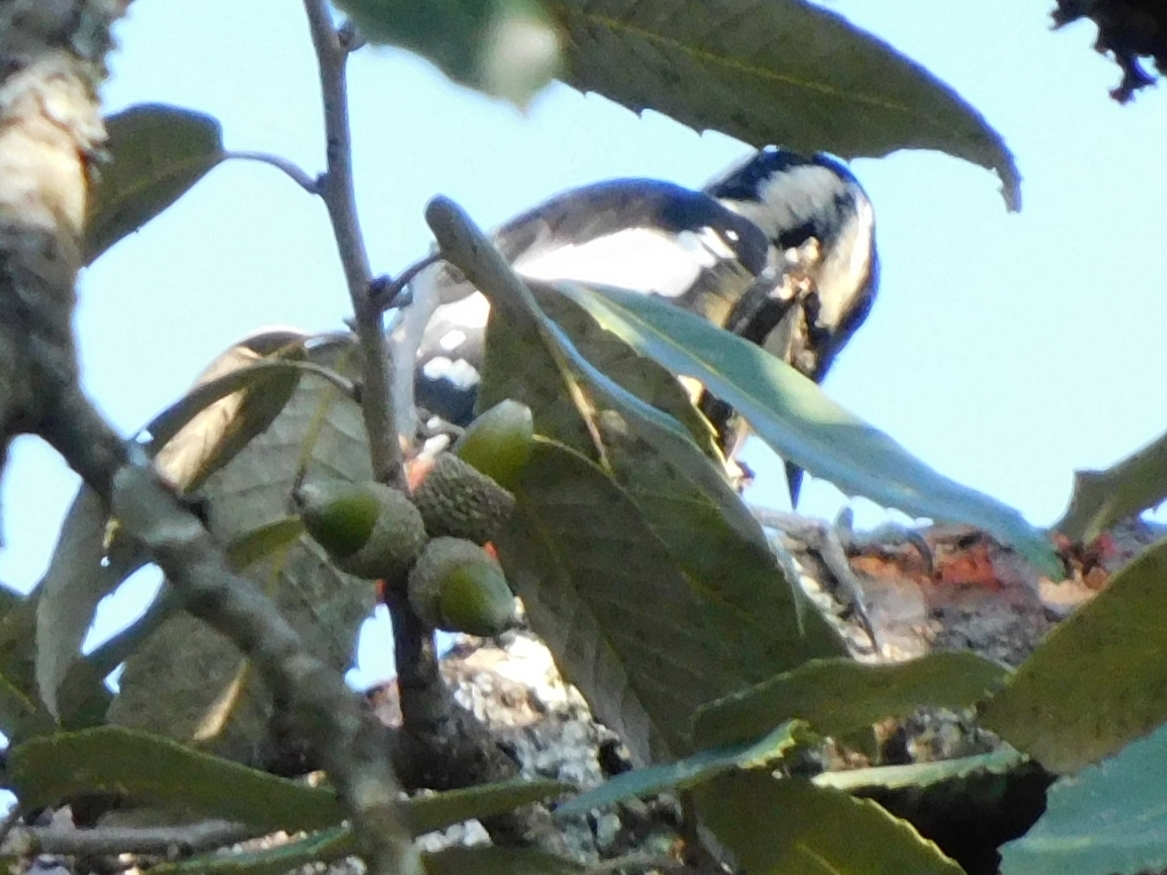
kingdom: Animalia
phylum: Chordata
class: Aves
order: Piciformes
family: Picidae
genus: Dendrocopos
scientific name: Dendrocopos himalayensis
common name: Himalayan woodpecker
